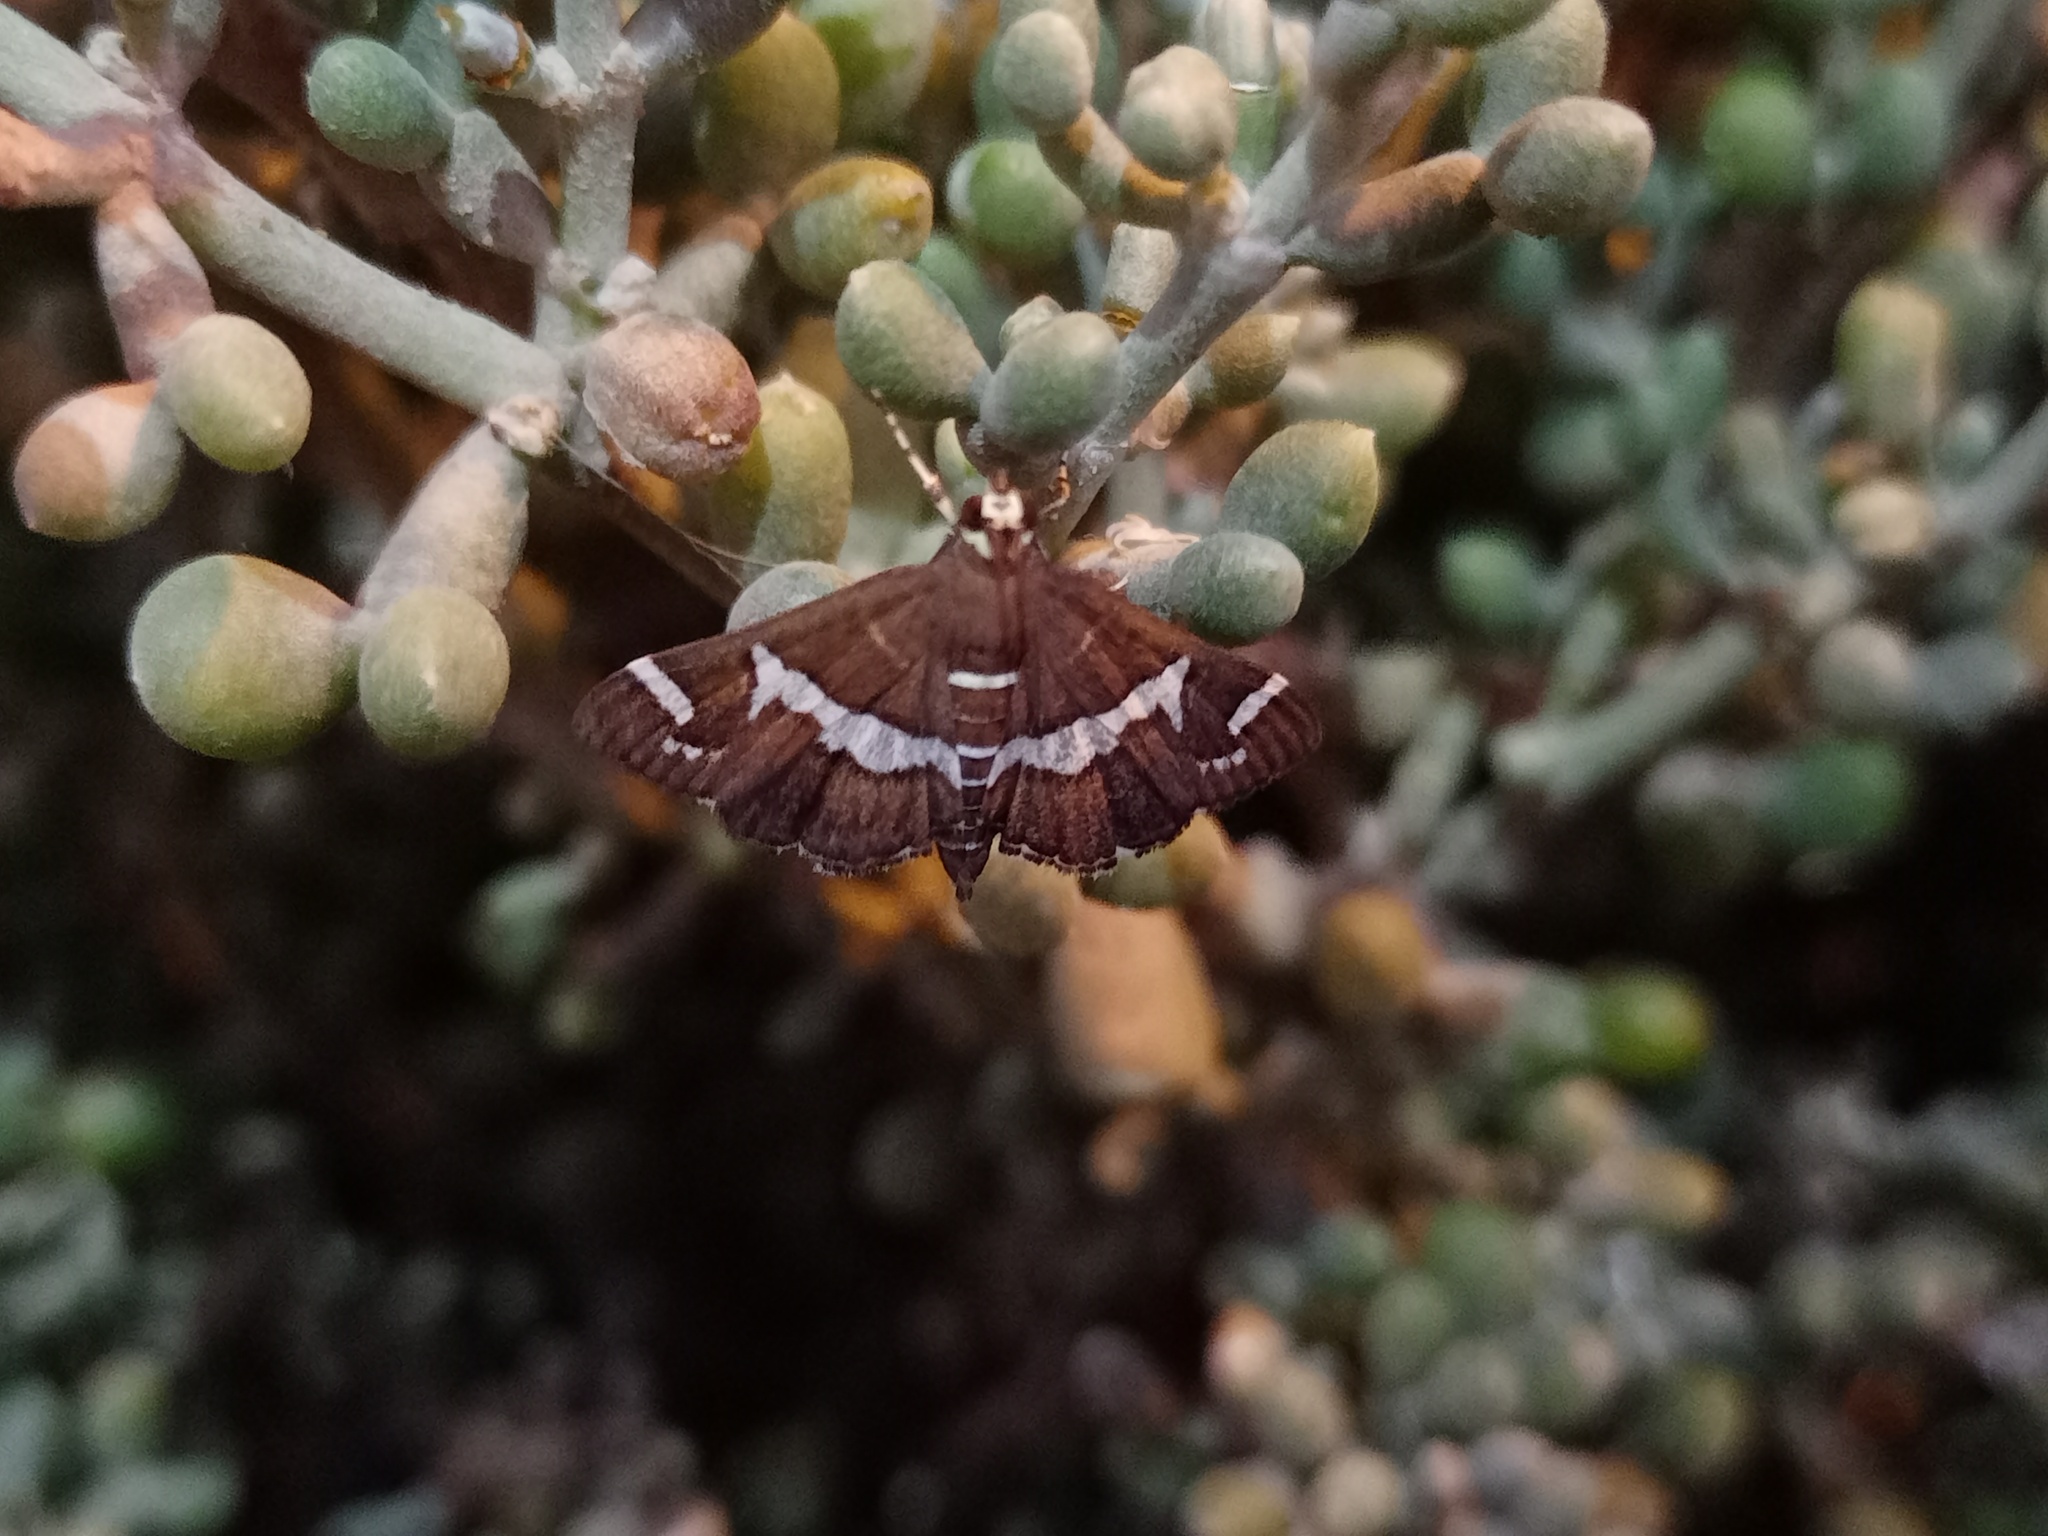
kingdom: Animalia
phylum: Arthropoda
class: Insecta
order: Lepidoptera
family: Crambidae
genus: Spoladea
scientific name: Spoladea recurvalis
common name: Beet webworm moth
